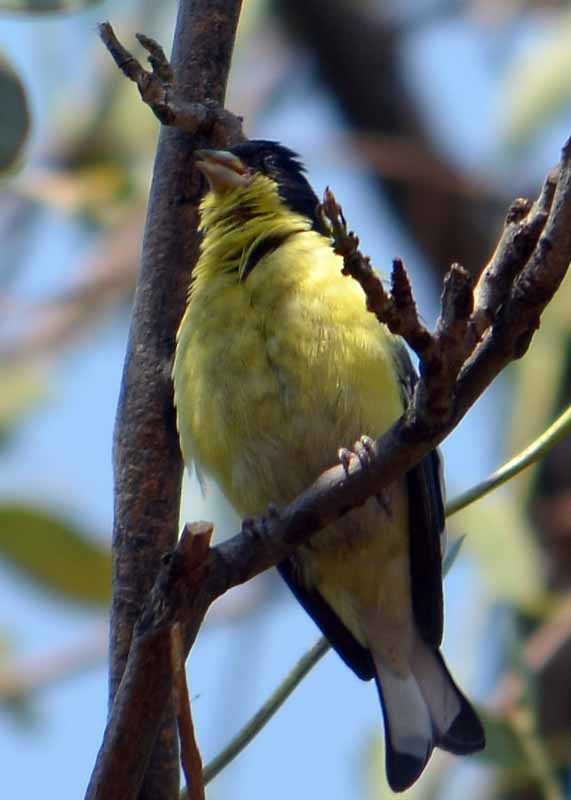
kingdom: Animalia
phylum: Chordata
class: Aves
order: Passeriformes
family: Fringillidae
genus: Spinus
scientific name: Spinus psaltria
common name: Lesser goldfinch
